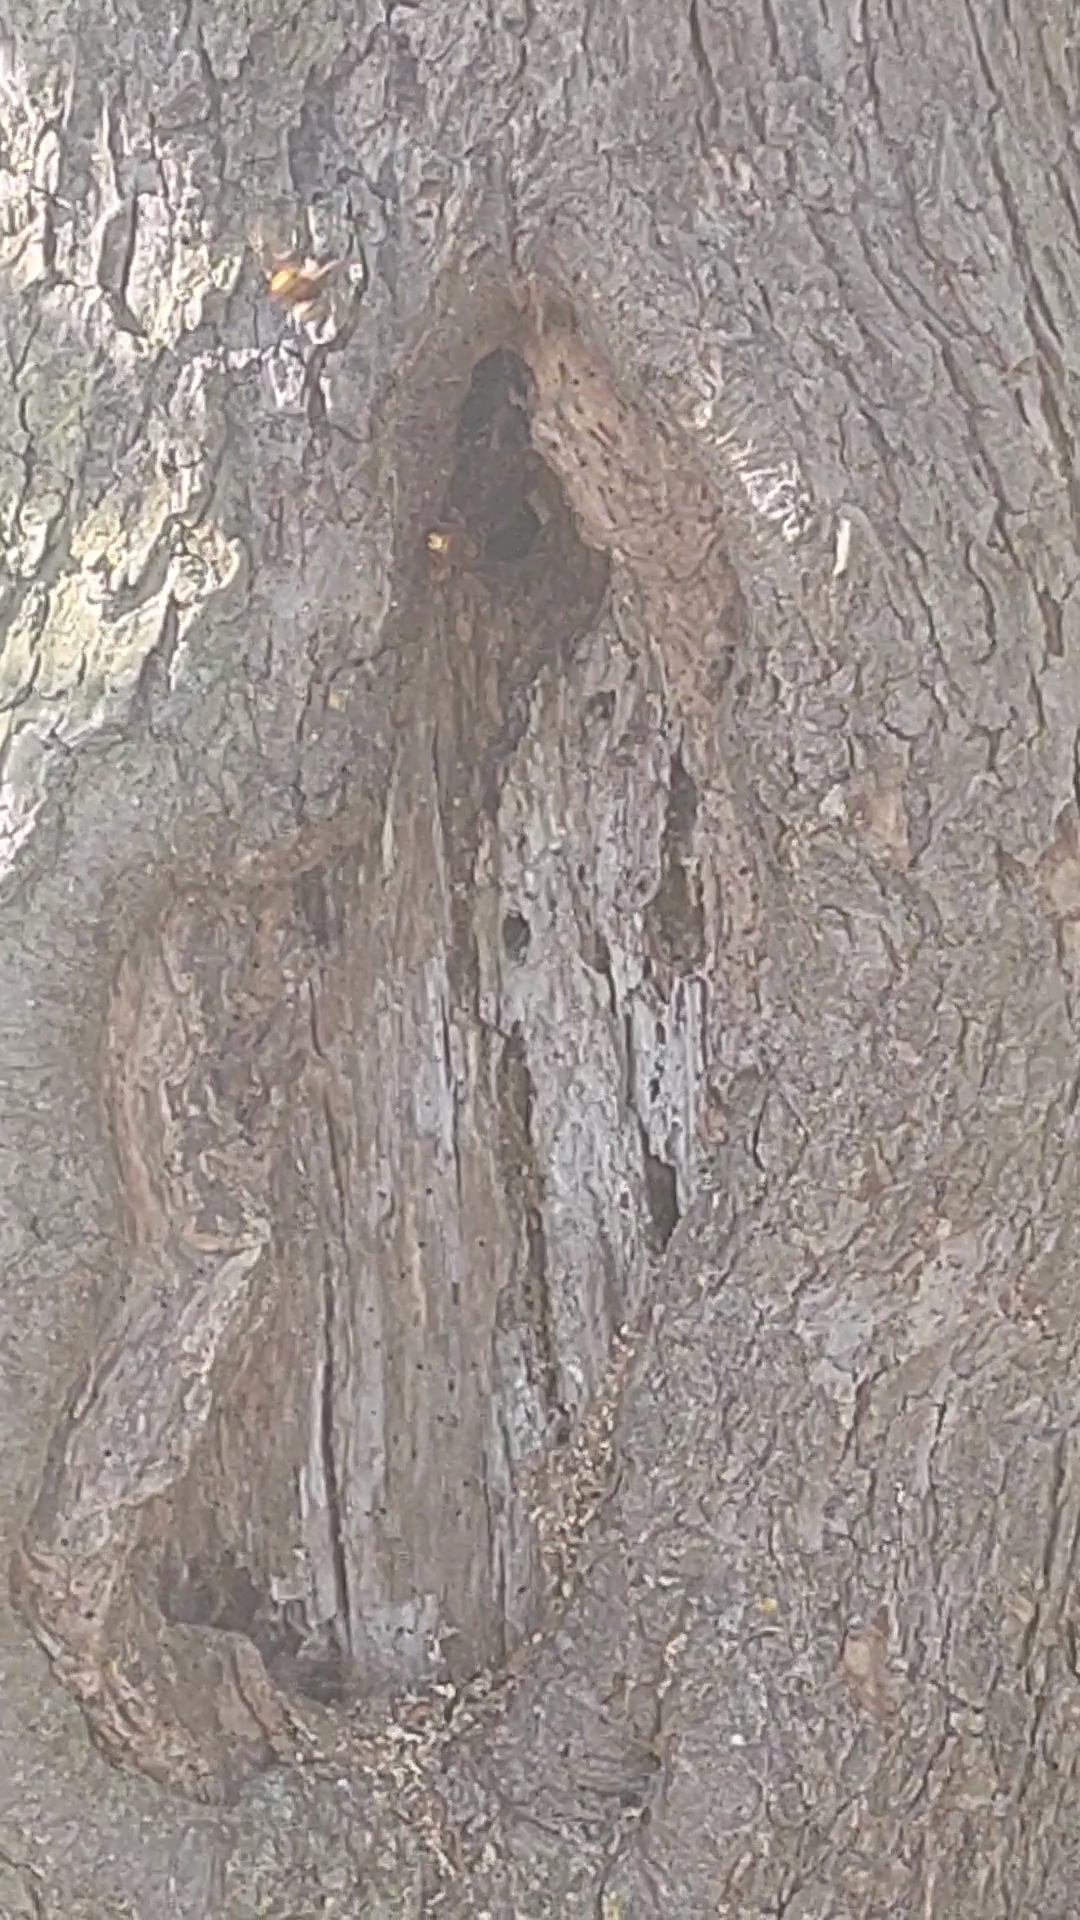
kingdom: Animalia
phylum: Arthropoda
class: Insecta
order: Hymenoptera
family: Vespidae
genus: Vespa
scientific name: Vespa crabro
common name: Hornet
